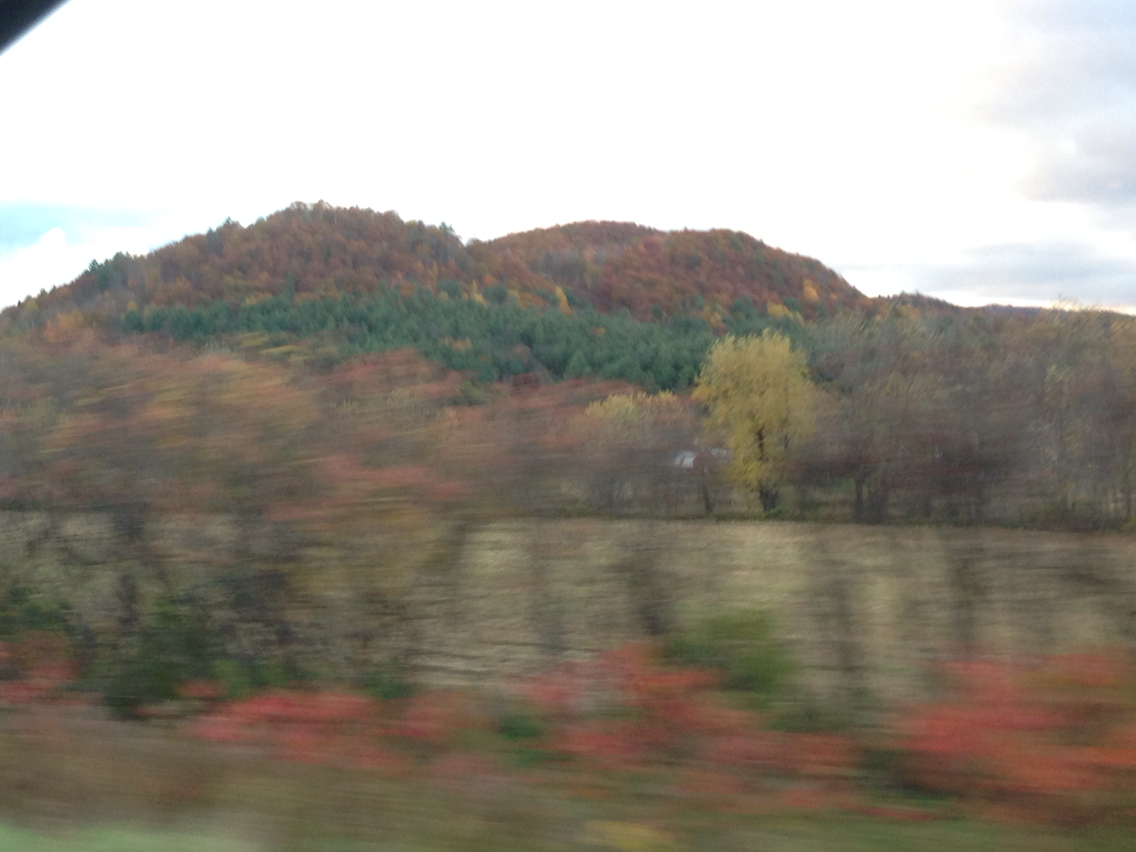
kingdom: Plantae
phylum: Tracheophyta
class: Magnoliopsida
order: Fagales
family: Fagaceae
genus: Quercus
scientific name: Quercus rubra
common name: Red oak
